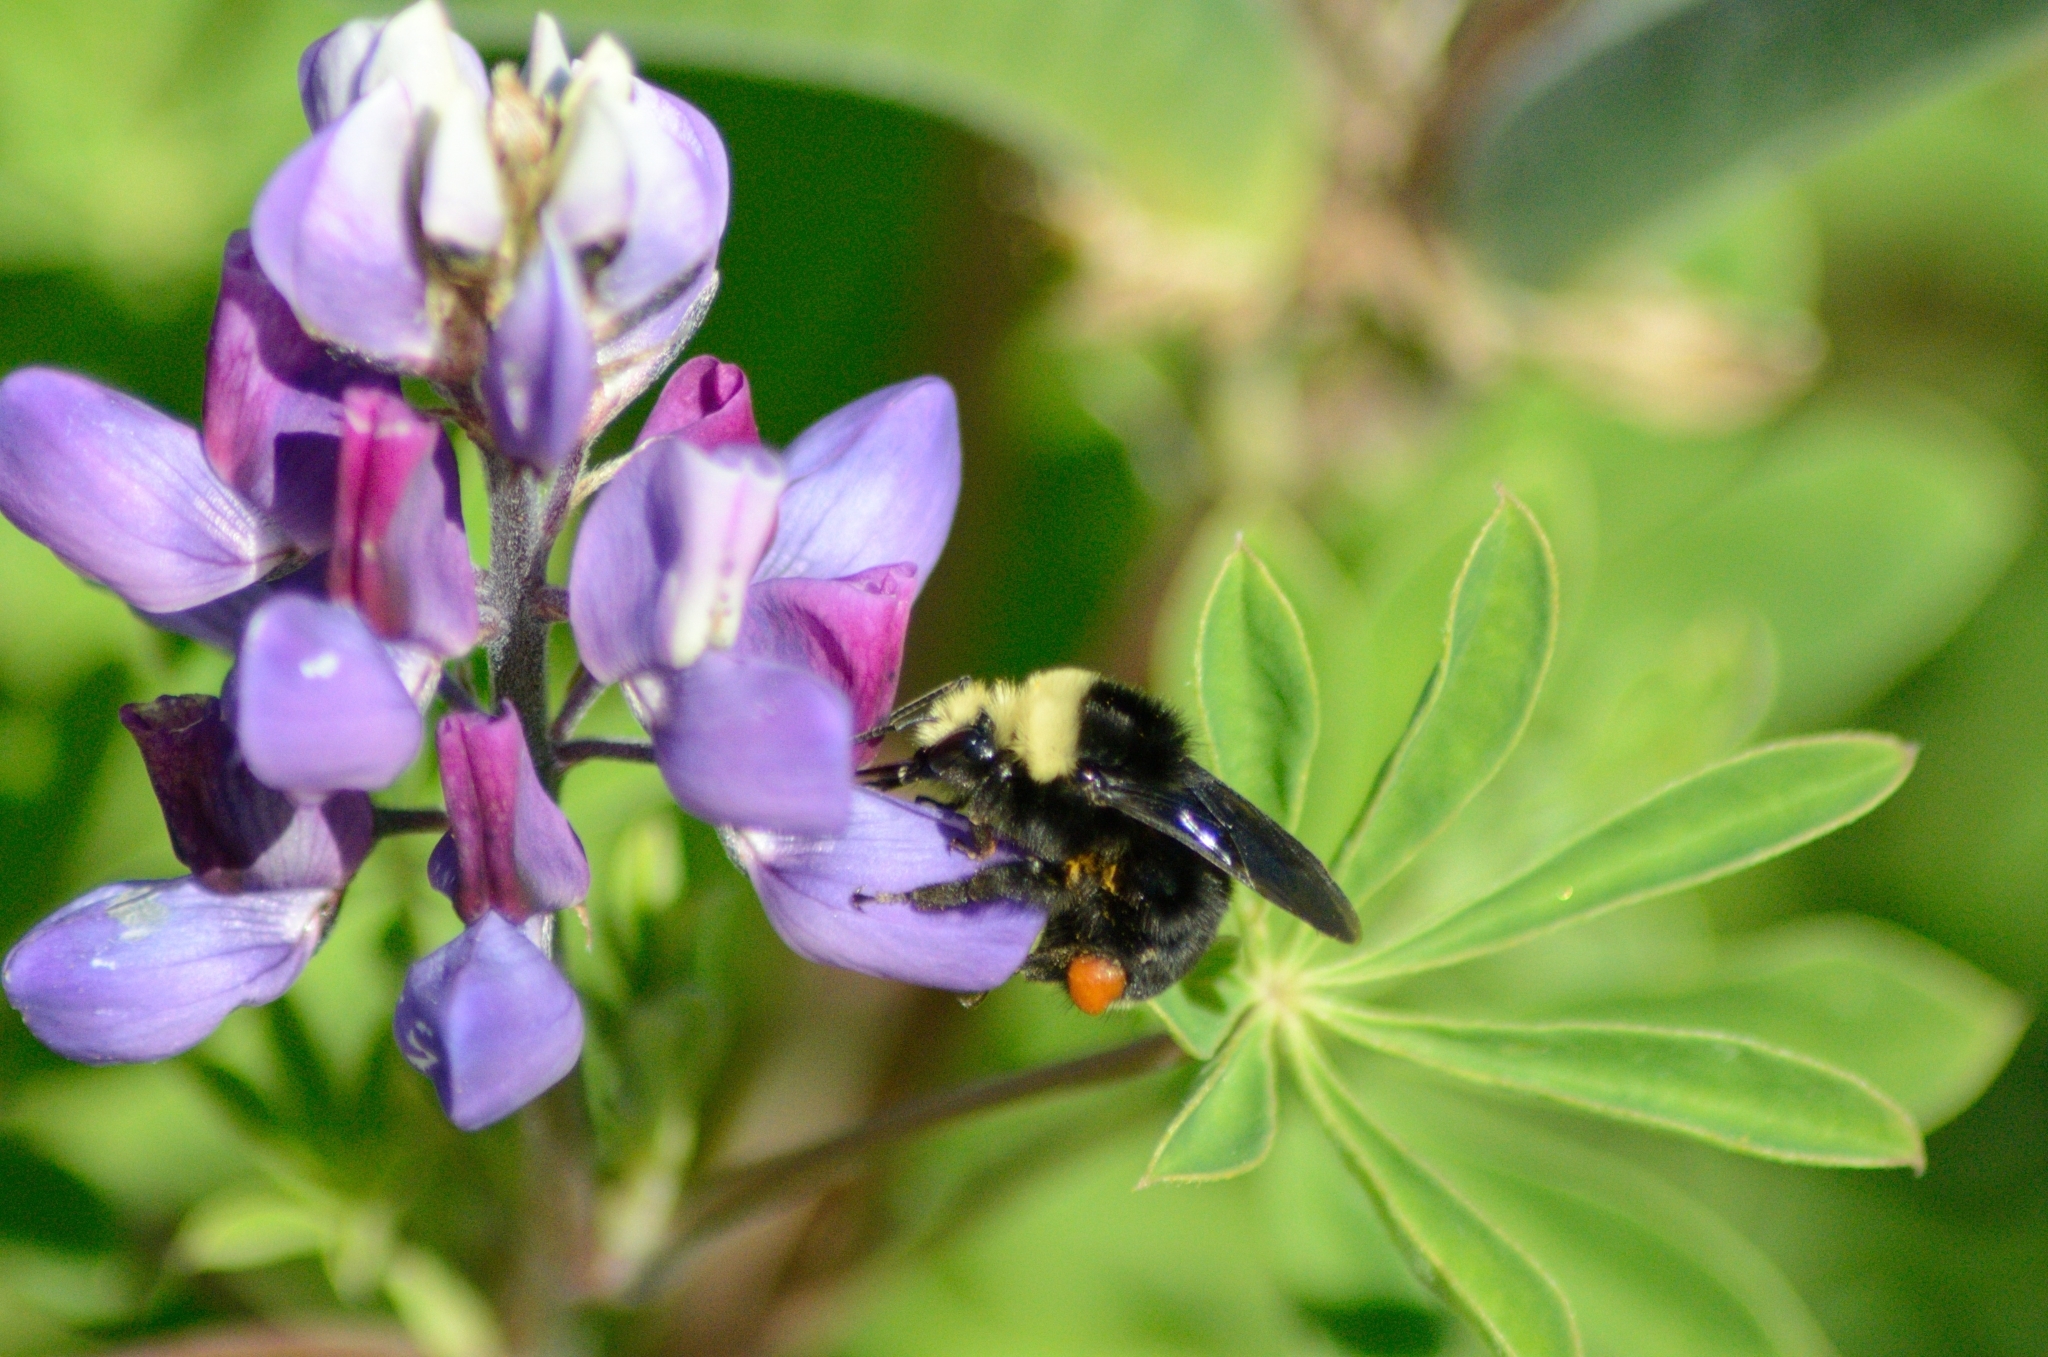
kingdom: Animalia
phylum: Arthropoda
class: Insecta
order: Hymenoptera
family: Apidae
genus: Bombus
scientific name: Bombus vosnesenskii
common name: Vosnesensky bumble bee
